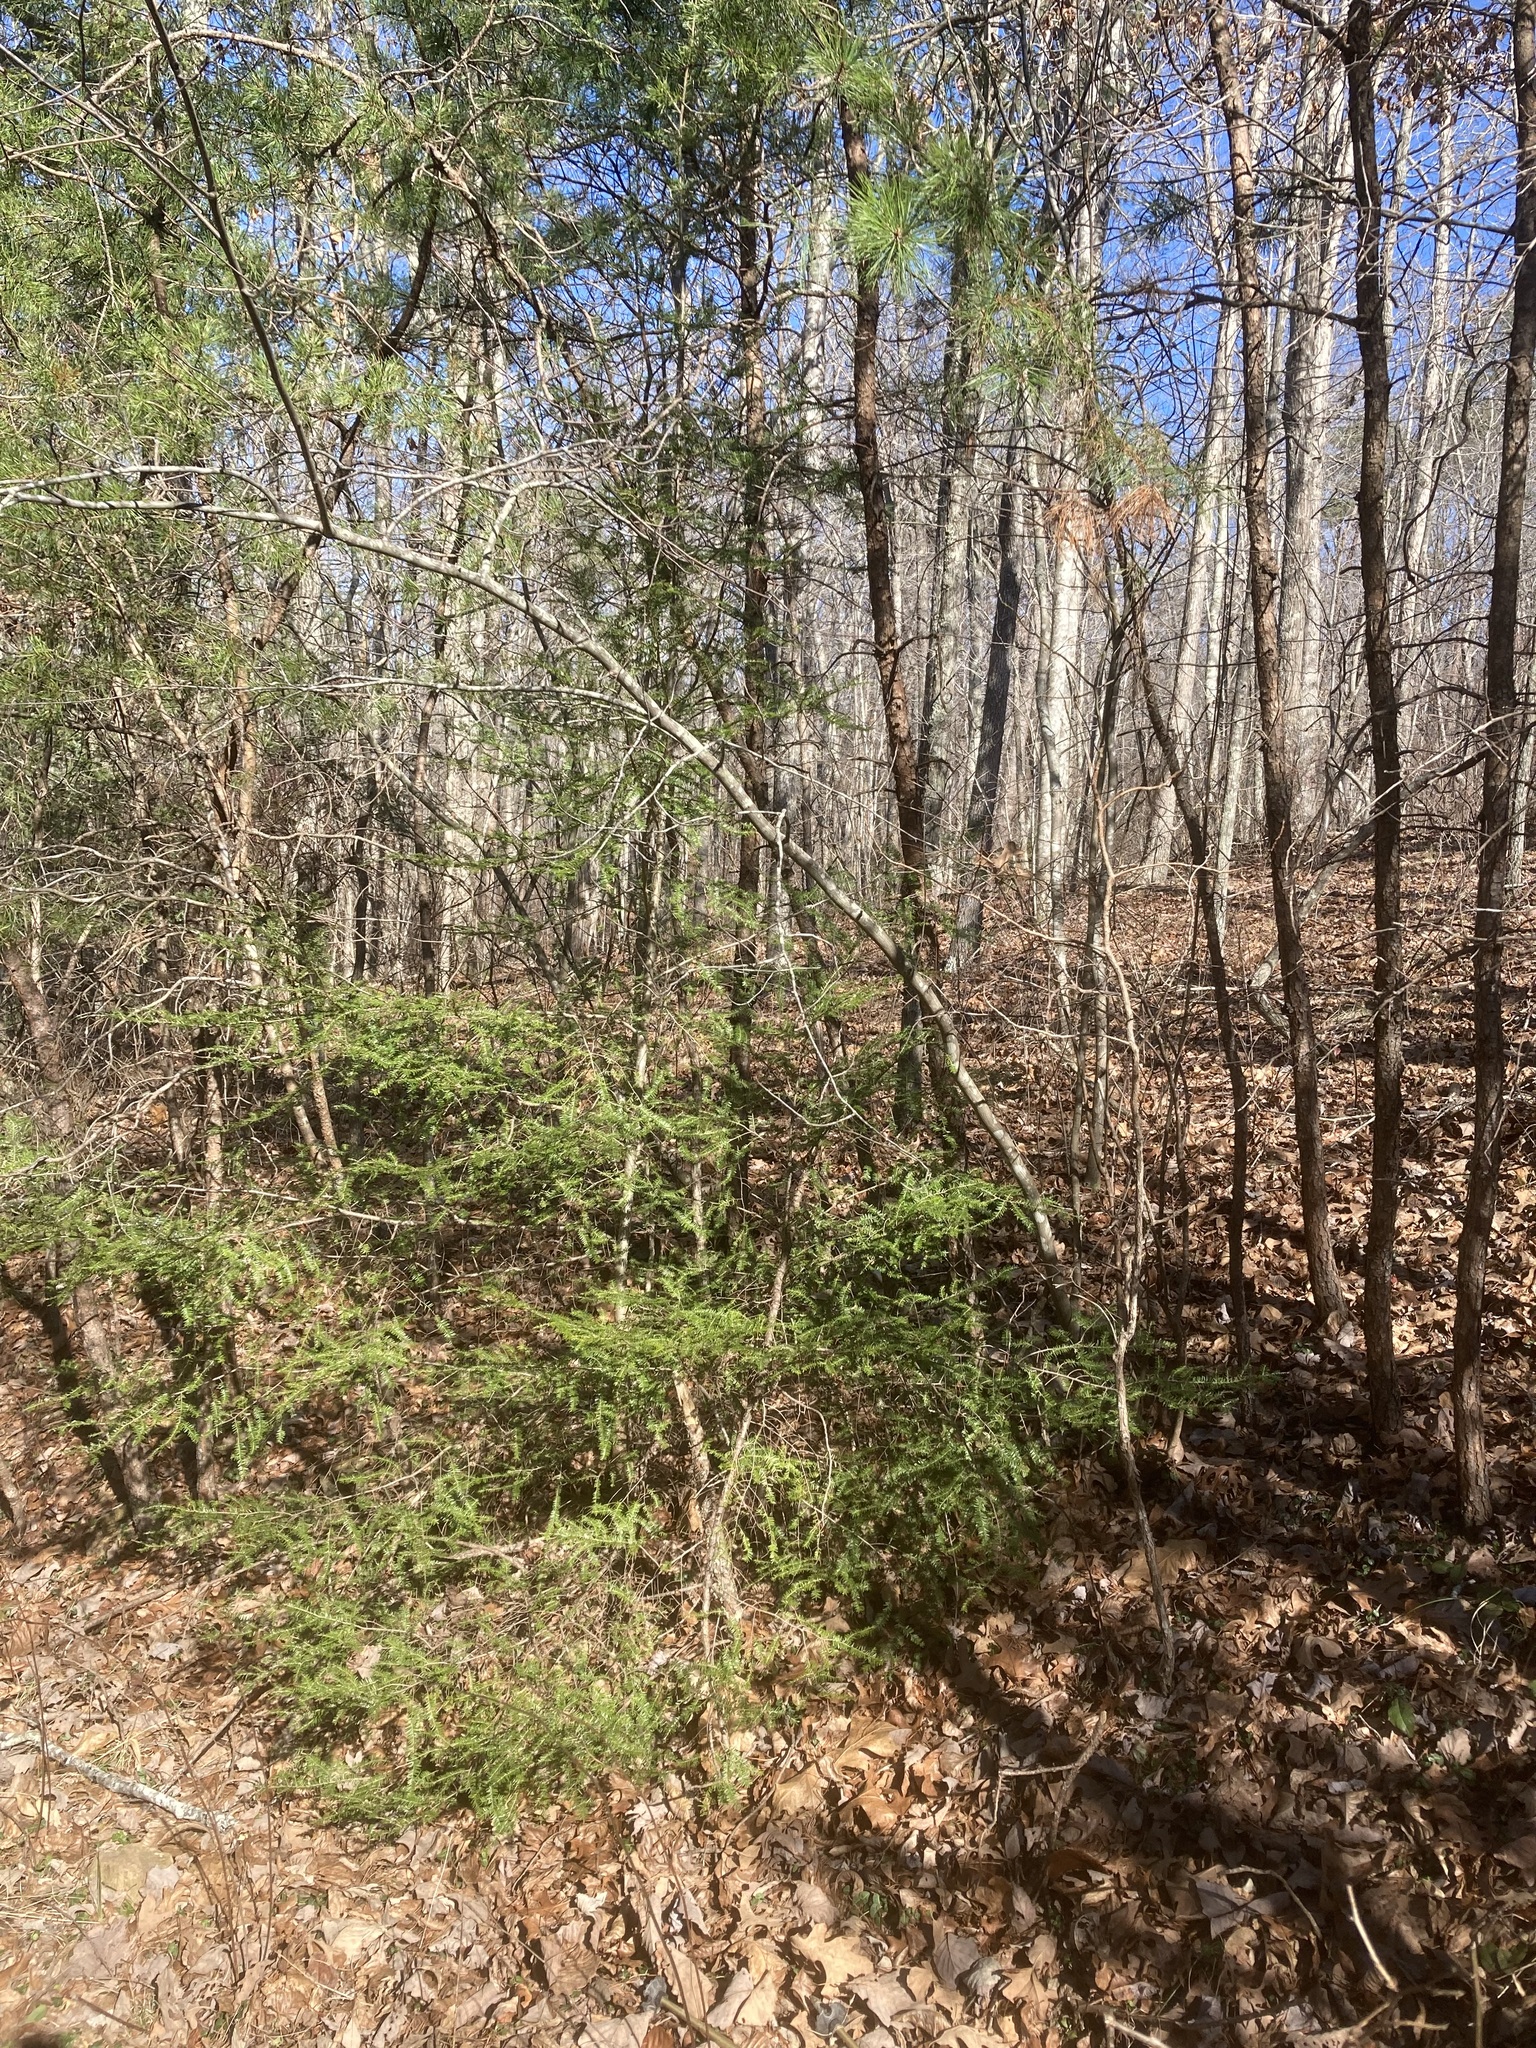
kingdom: Animalia
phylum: Arthropoda
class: Insecta
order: Hemiptera
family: Adelgidae
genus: Adelges
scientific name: Adelges tsugae
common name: Hemlock woolly adelgid
